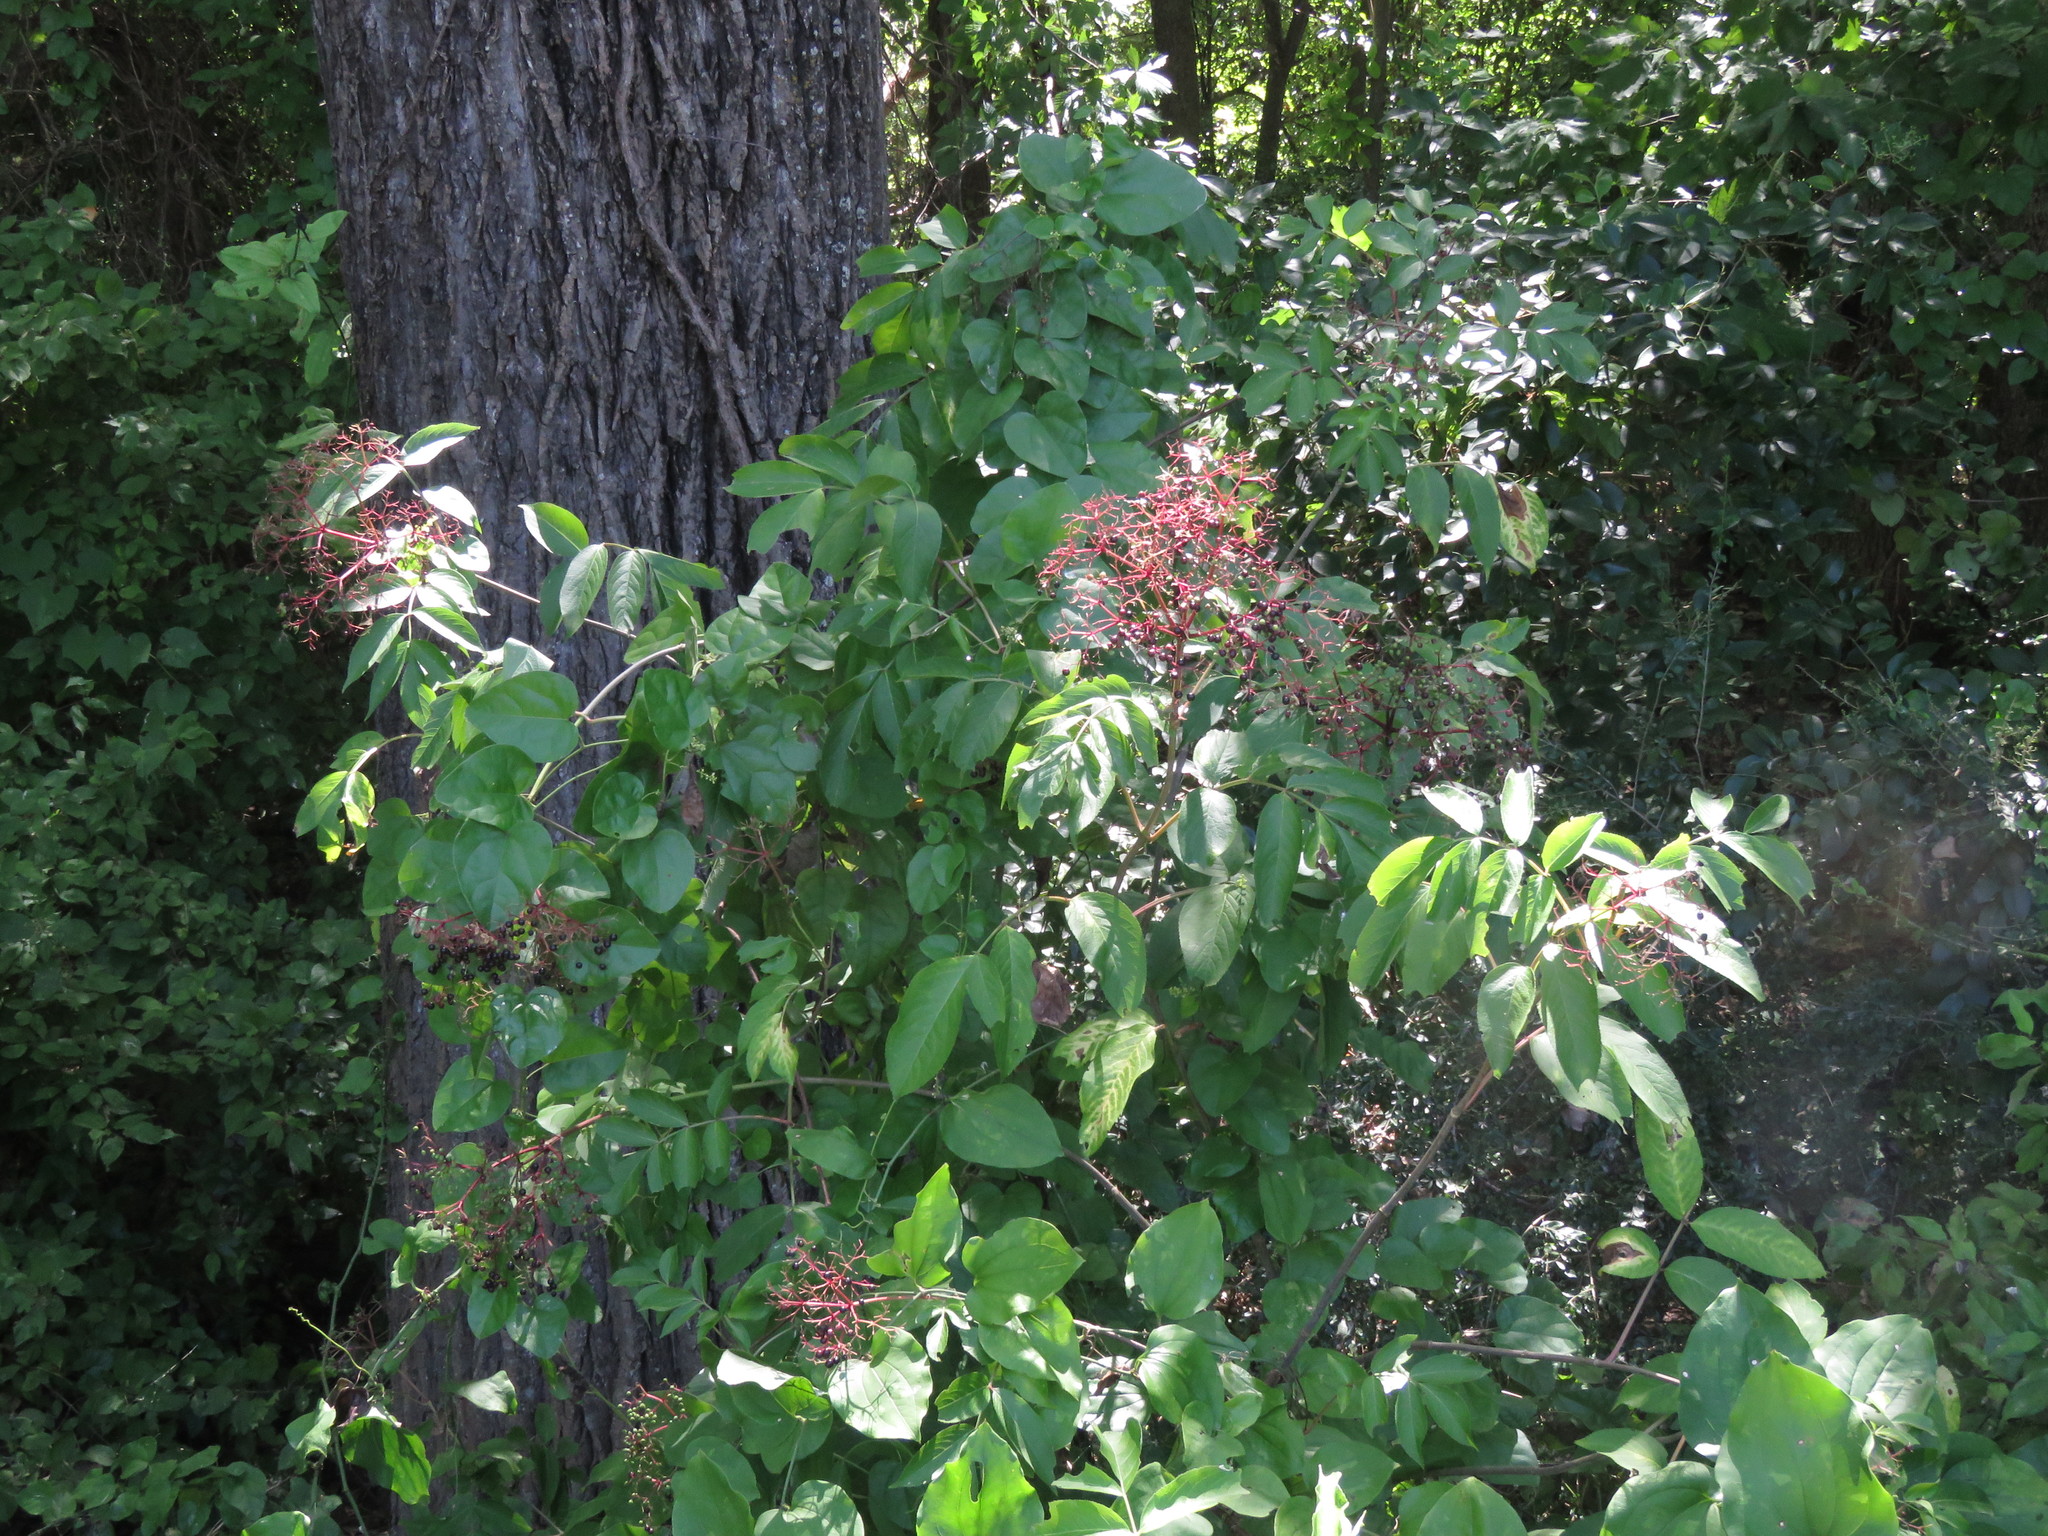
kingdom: Plantae
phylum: Tracheophyta
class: Magnoliopsida
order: Dipsacales
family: Viburnaceae
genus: Sambucus
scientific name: Sambucus canadensis
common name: American elder
